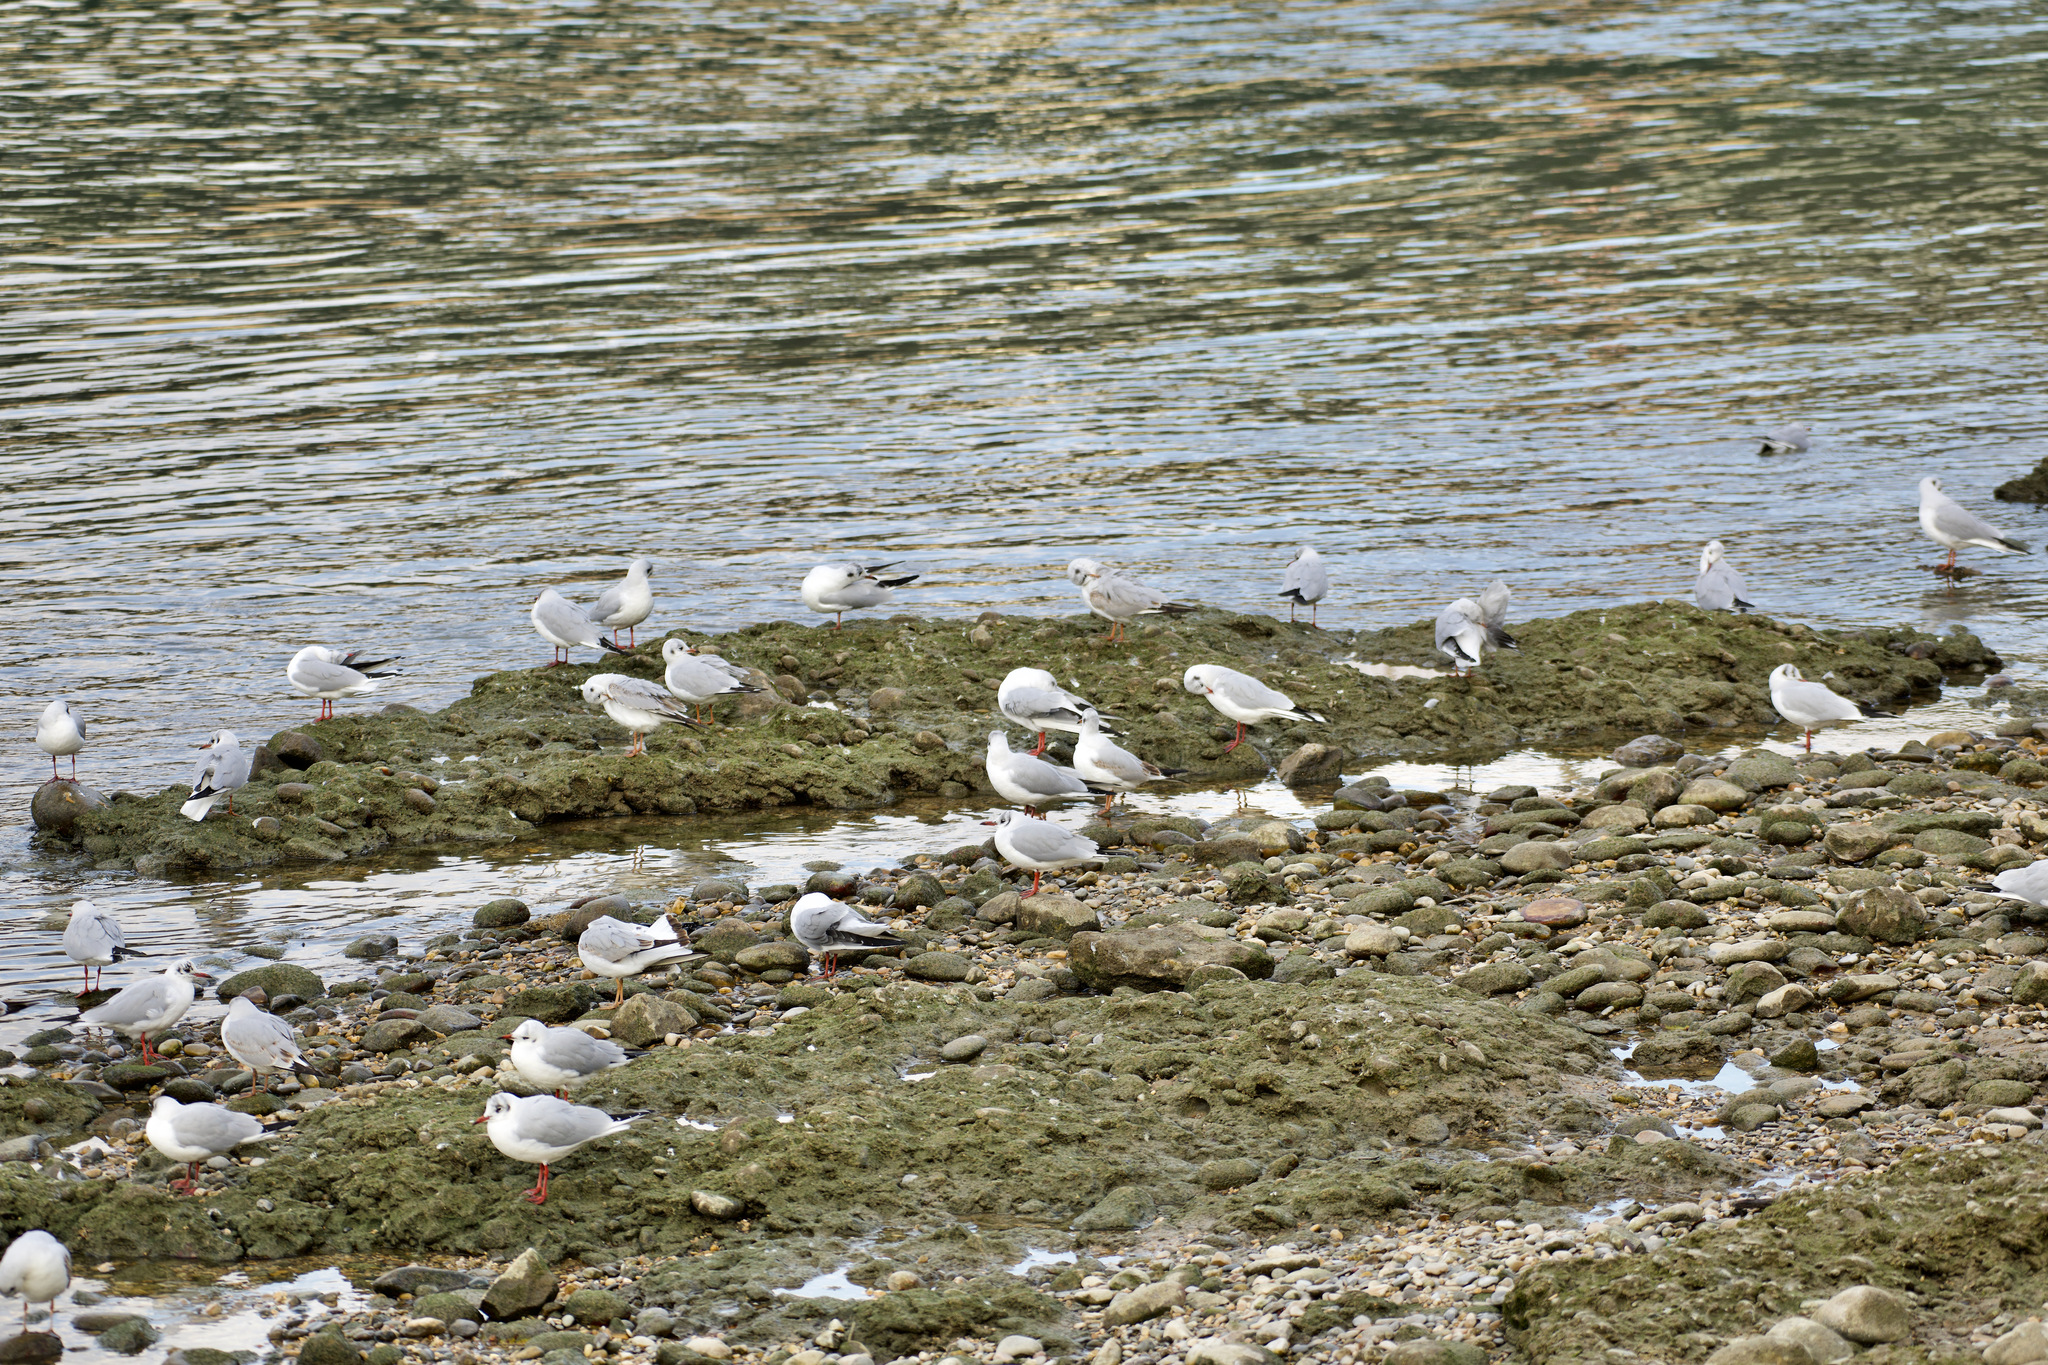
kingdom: Animalia
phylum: Chordata
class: Aves
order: Charadriiformes
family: Laridae
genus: Chroicocephalus
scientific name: Chroicocephalus ridibundus
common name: Black-headed gull
